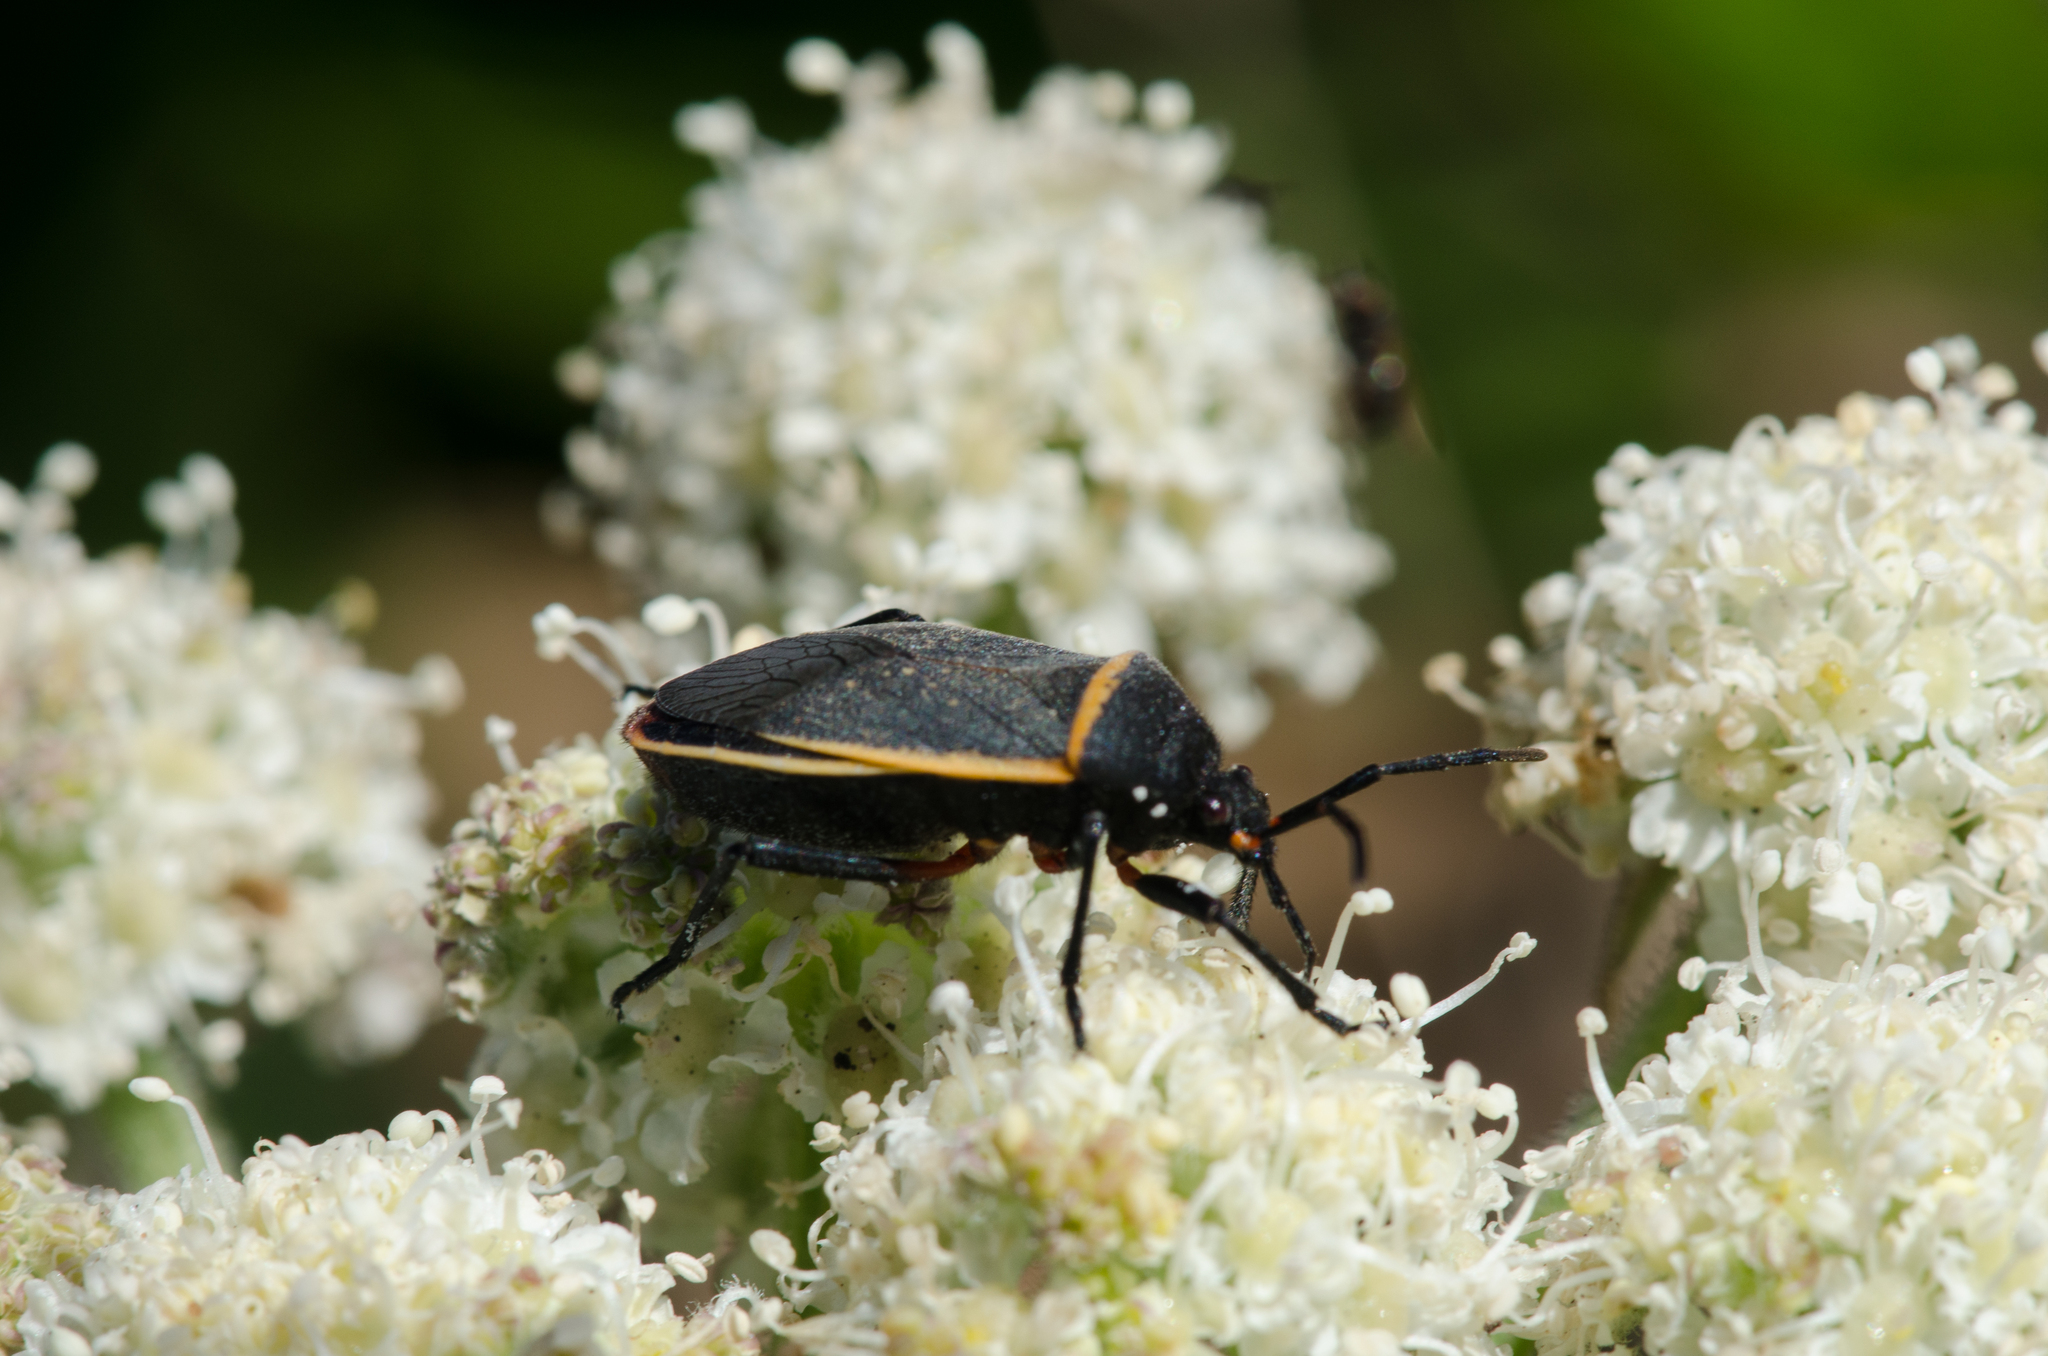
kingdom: Animalia
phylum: Arthropoda
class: Insecta
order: Hemiptera
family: Largidae
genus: Largus
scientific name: Largus californicus
